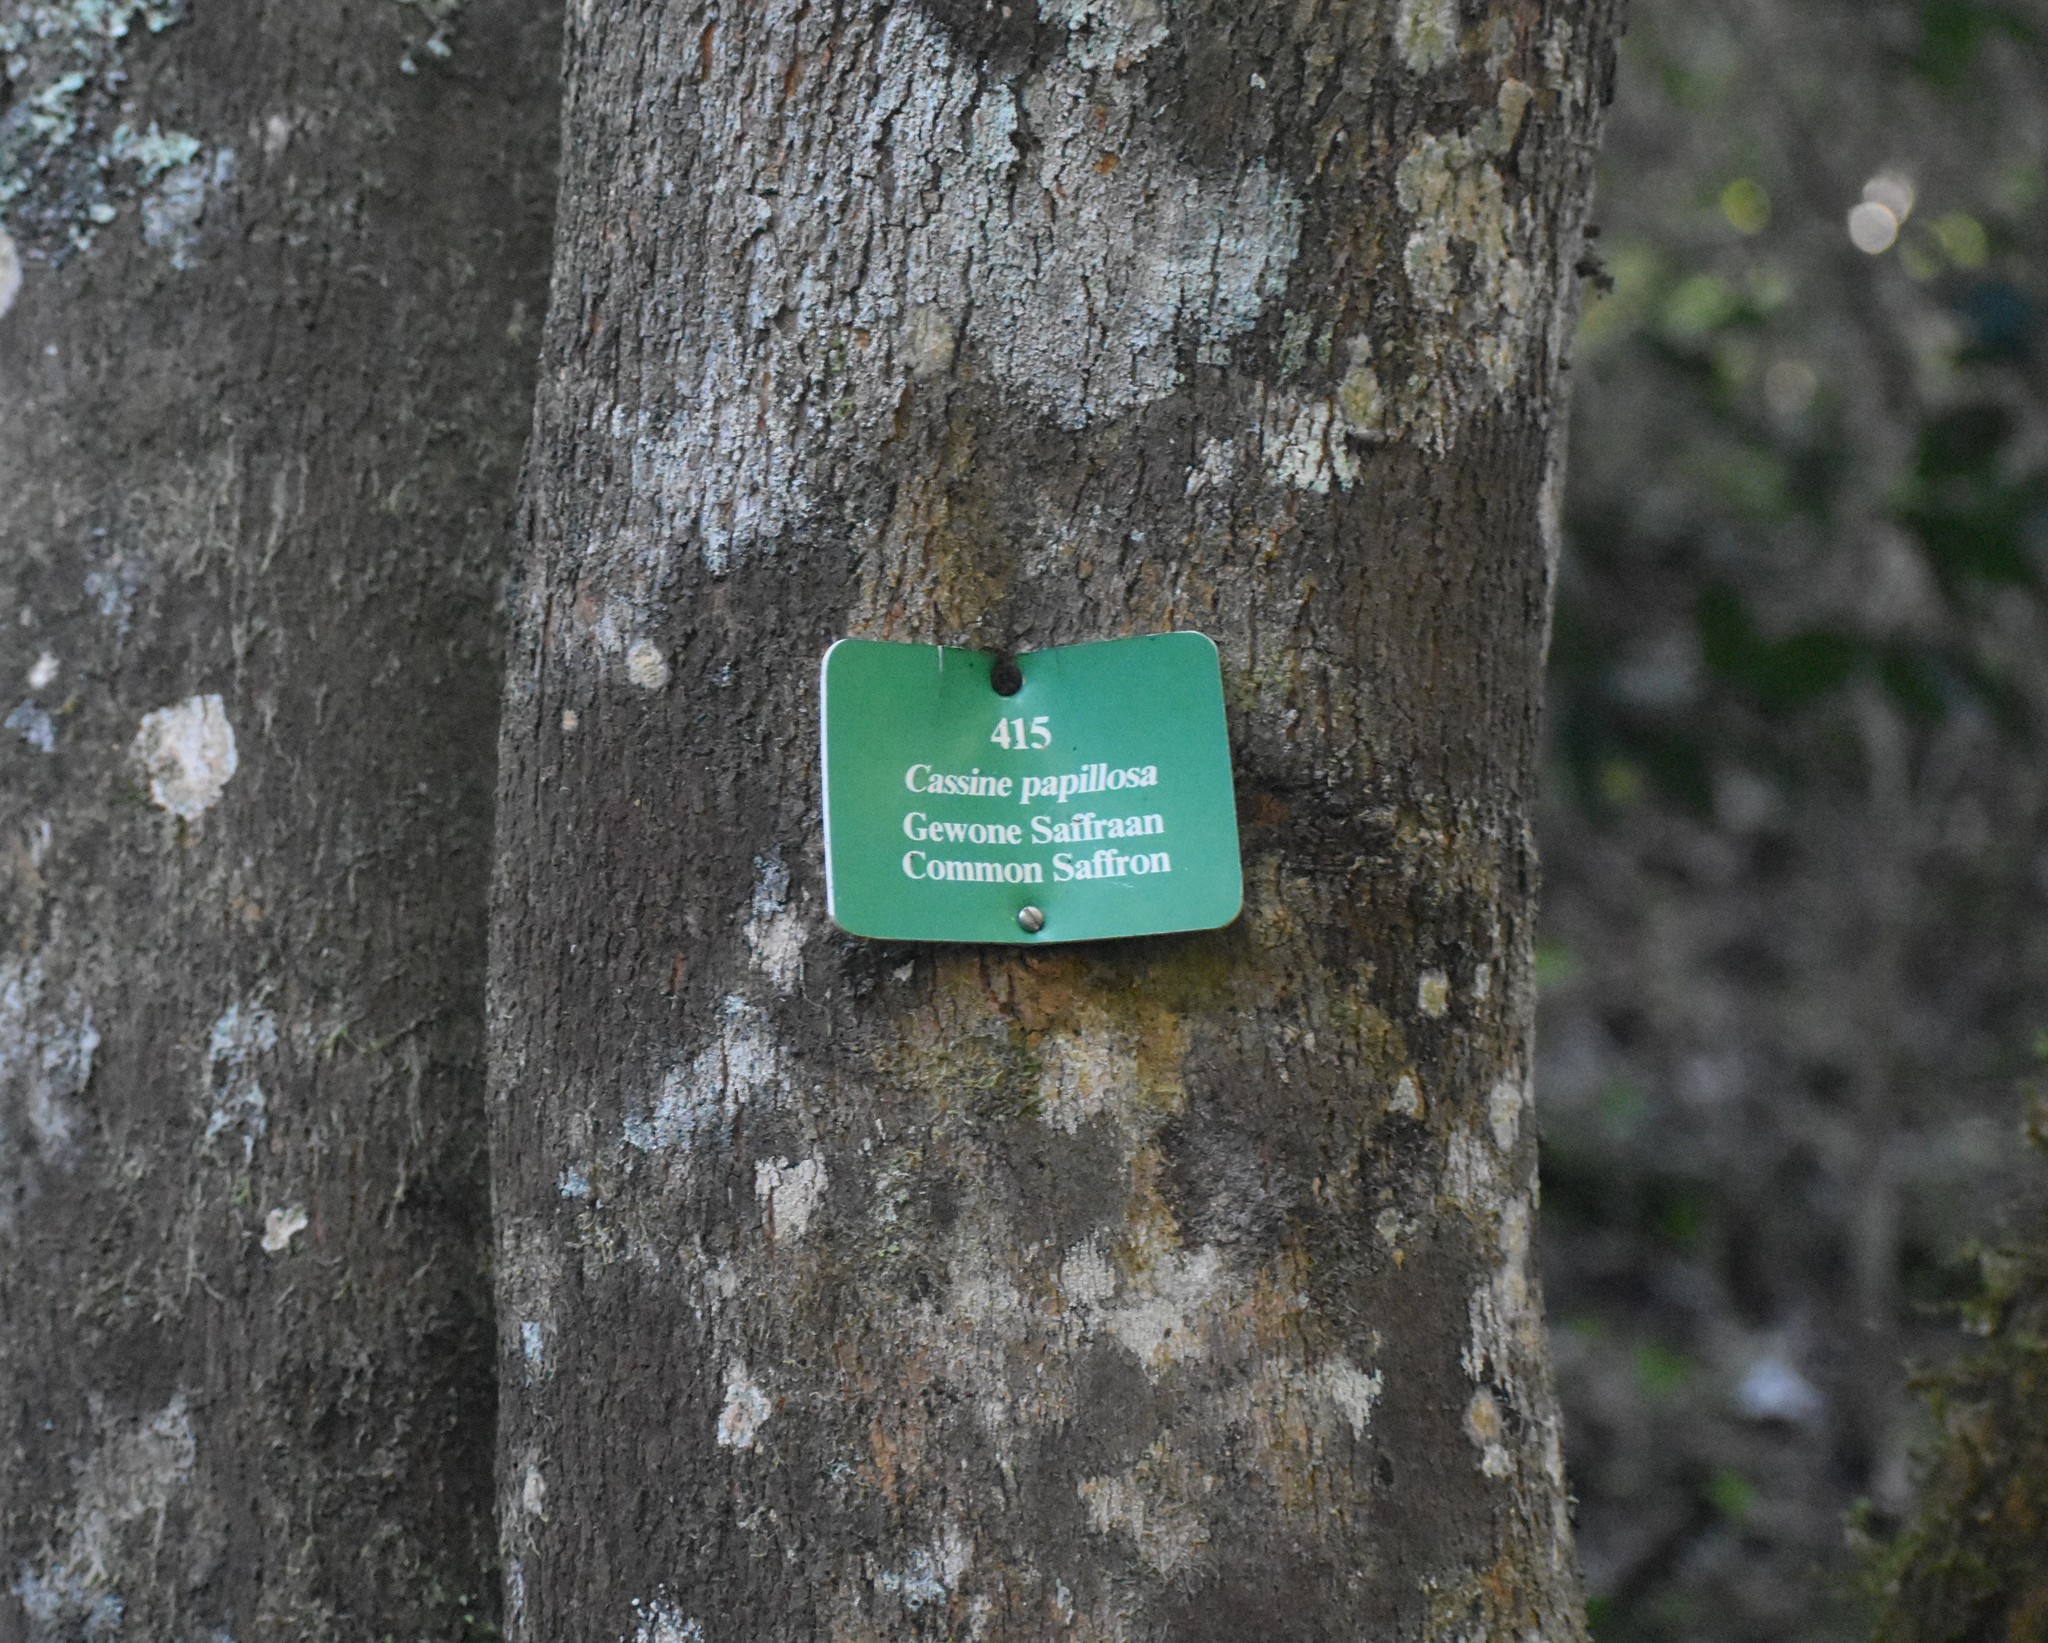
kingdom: Plantae
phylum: Tracheophyta
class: Magnoliopsida
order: Celastrales
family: Celastraceae
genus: Elaeodendron
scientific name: Elaeodendron croceum
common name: Saffron
